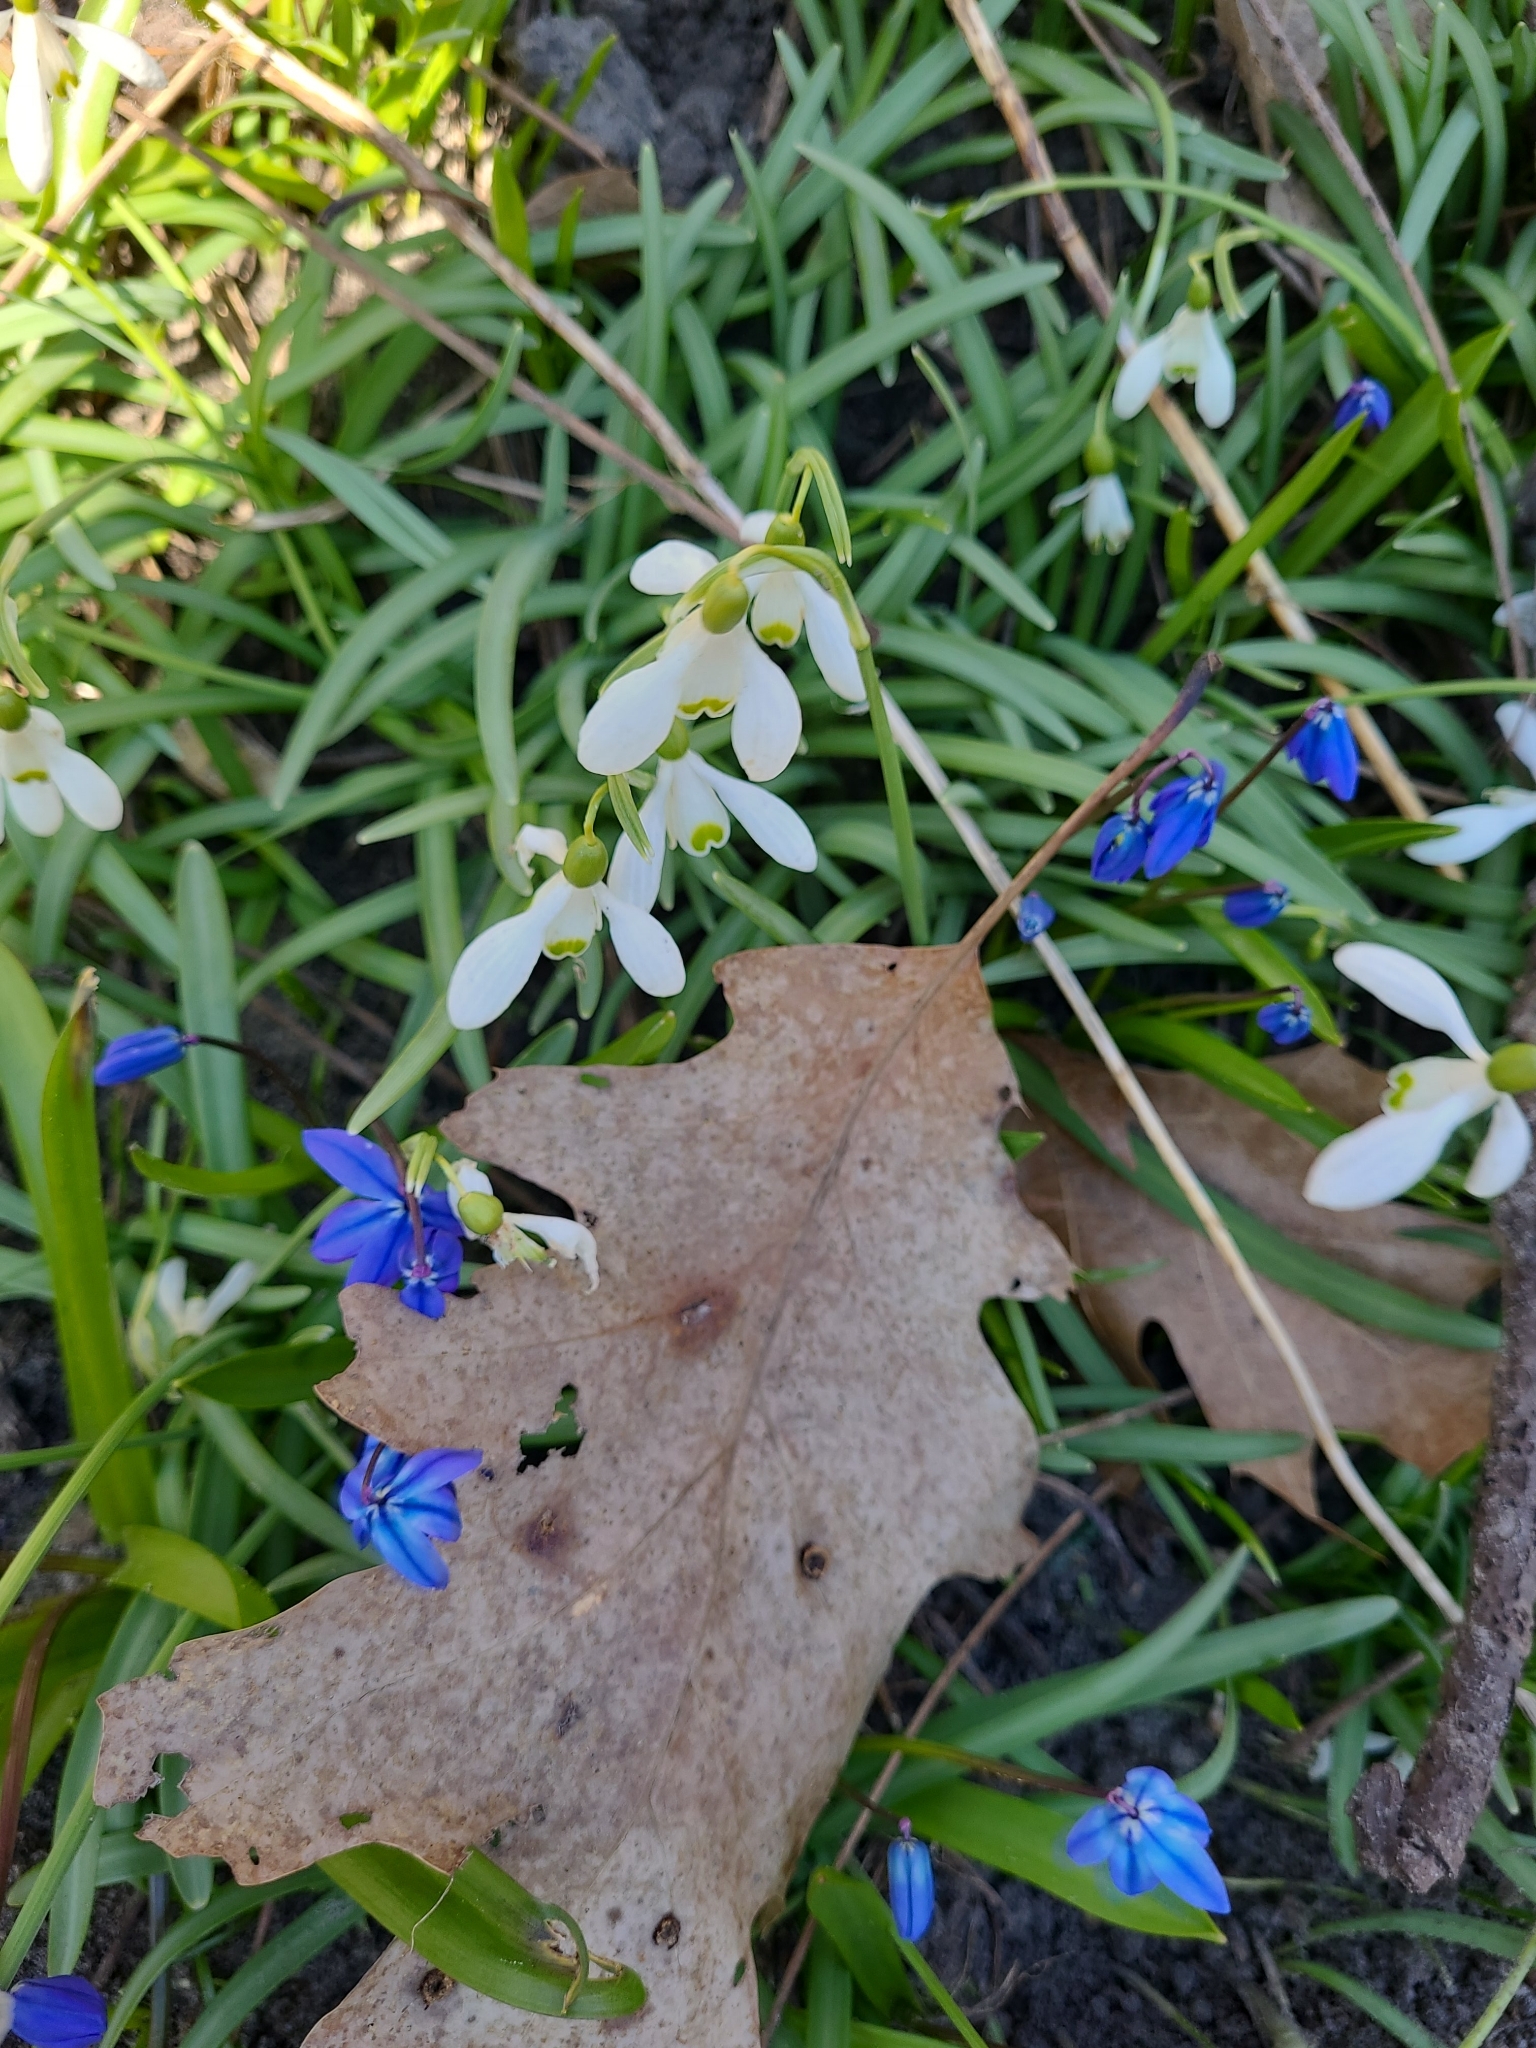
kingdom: Plantae
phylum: Tracheophyta
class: Liliopsida
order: Asparagales
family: Amaryllidaceae
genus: Galanthus
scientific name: Galanthus nivalis
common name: Snowdrop
